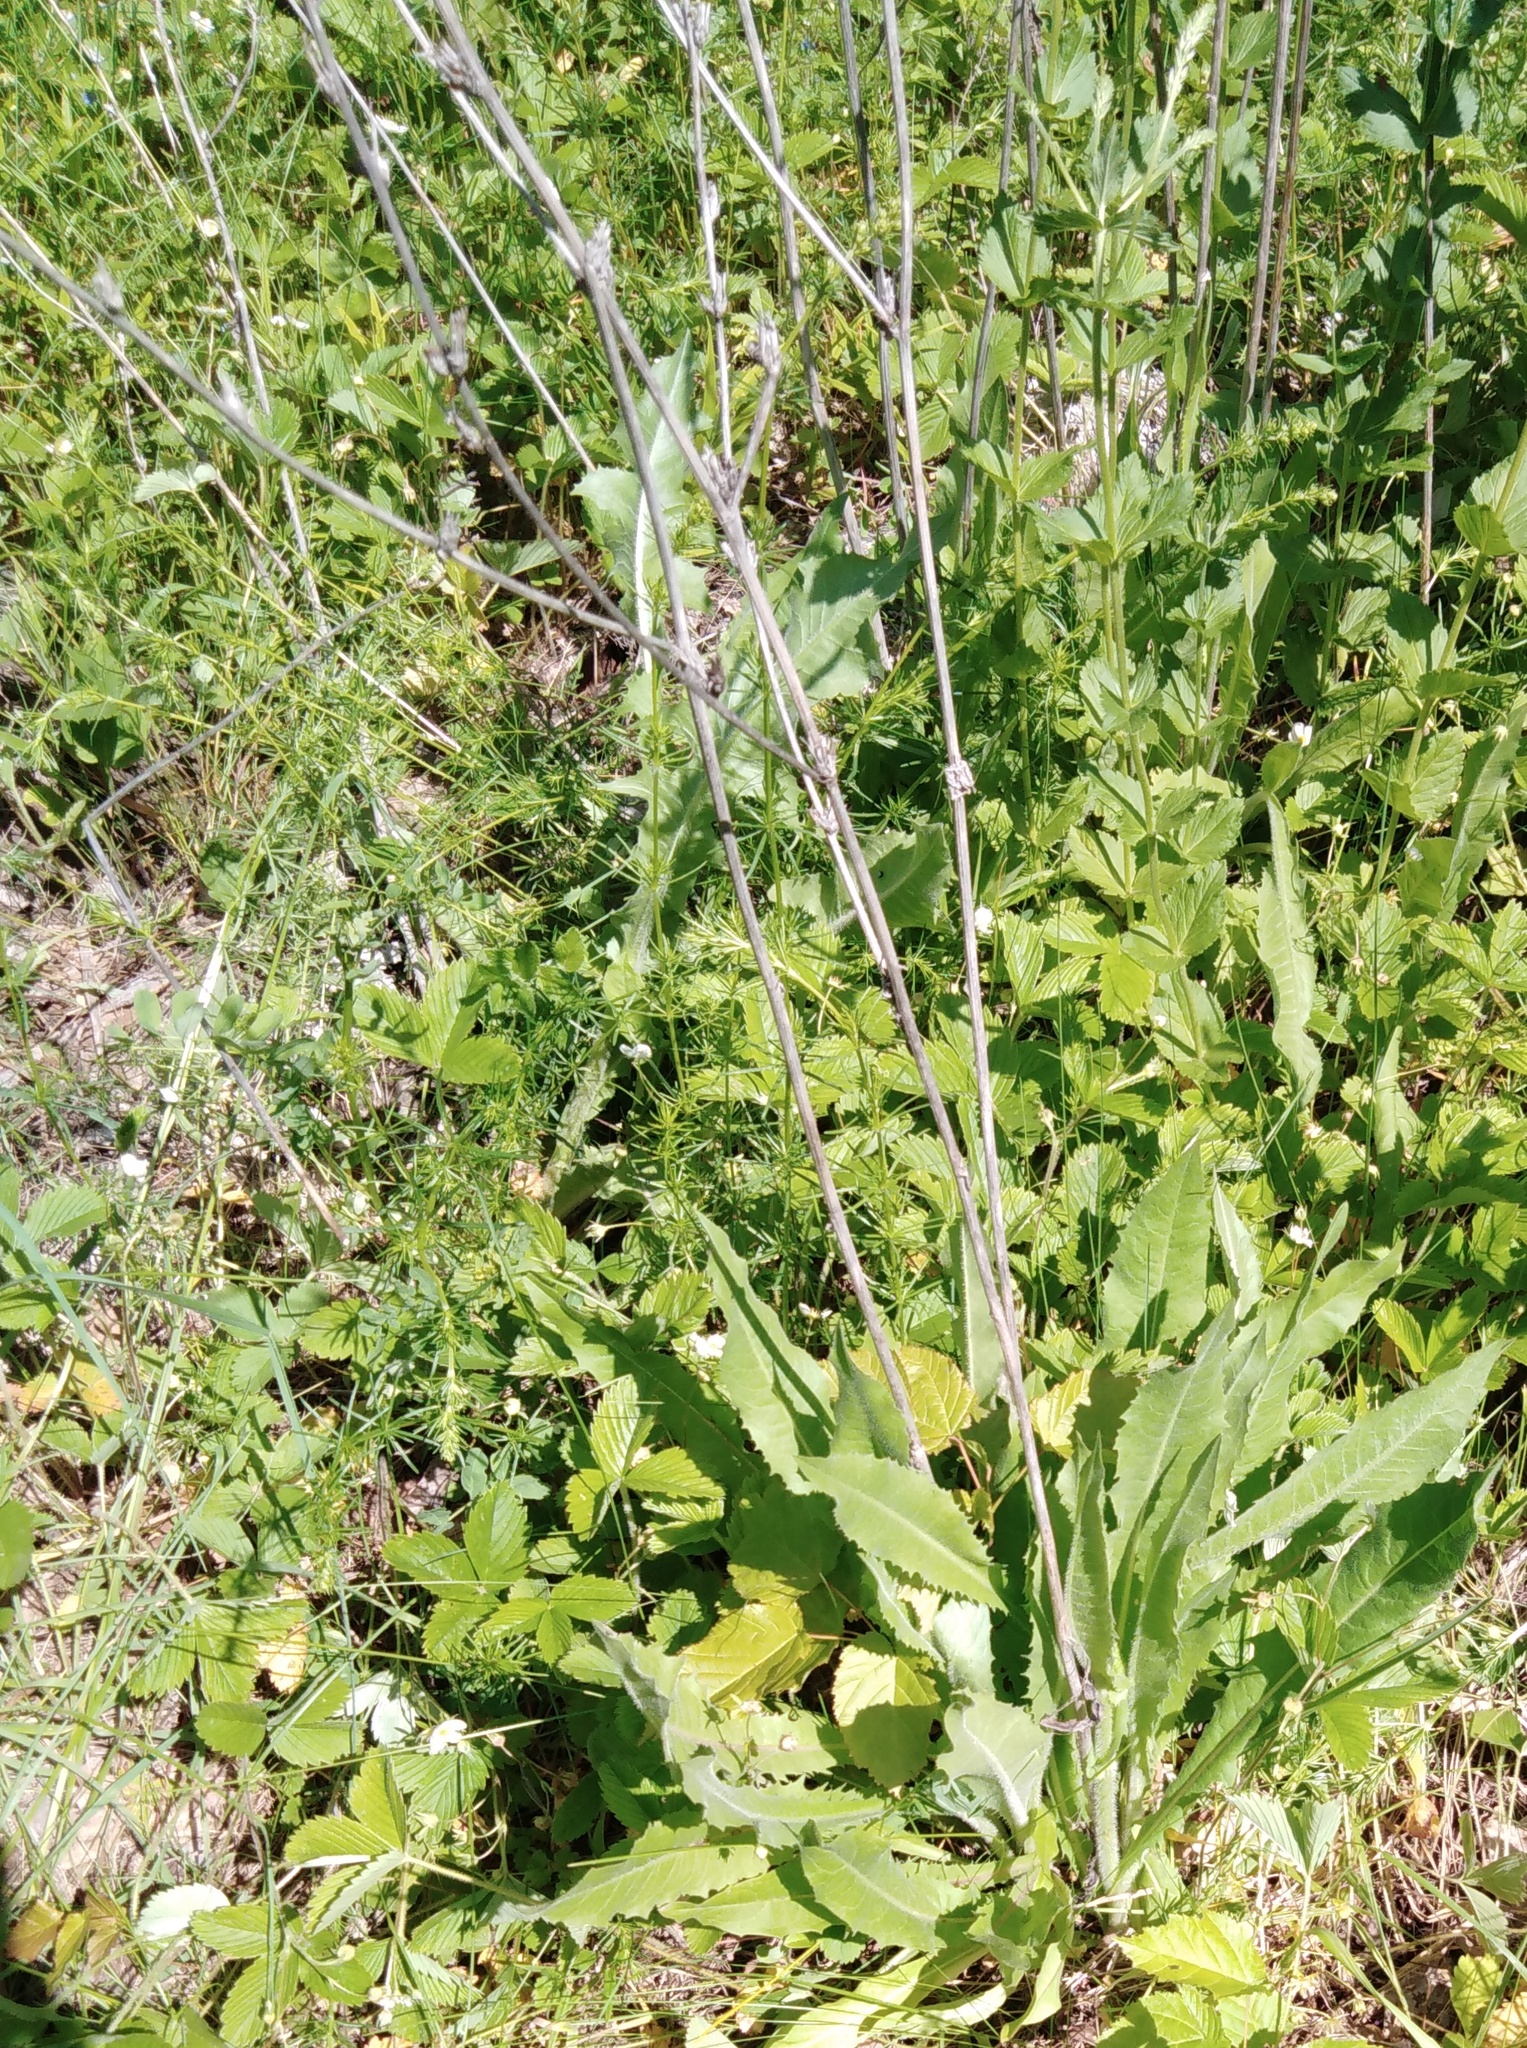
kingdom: Plantae
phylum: Tracheophyta
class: Magnoliopsida
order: Asterales
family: Asteraceae
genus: Cichorium
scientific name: Cichorium intybus
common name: Chicory
